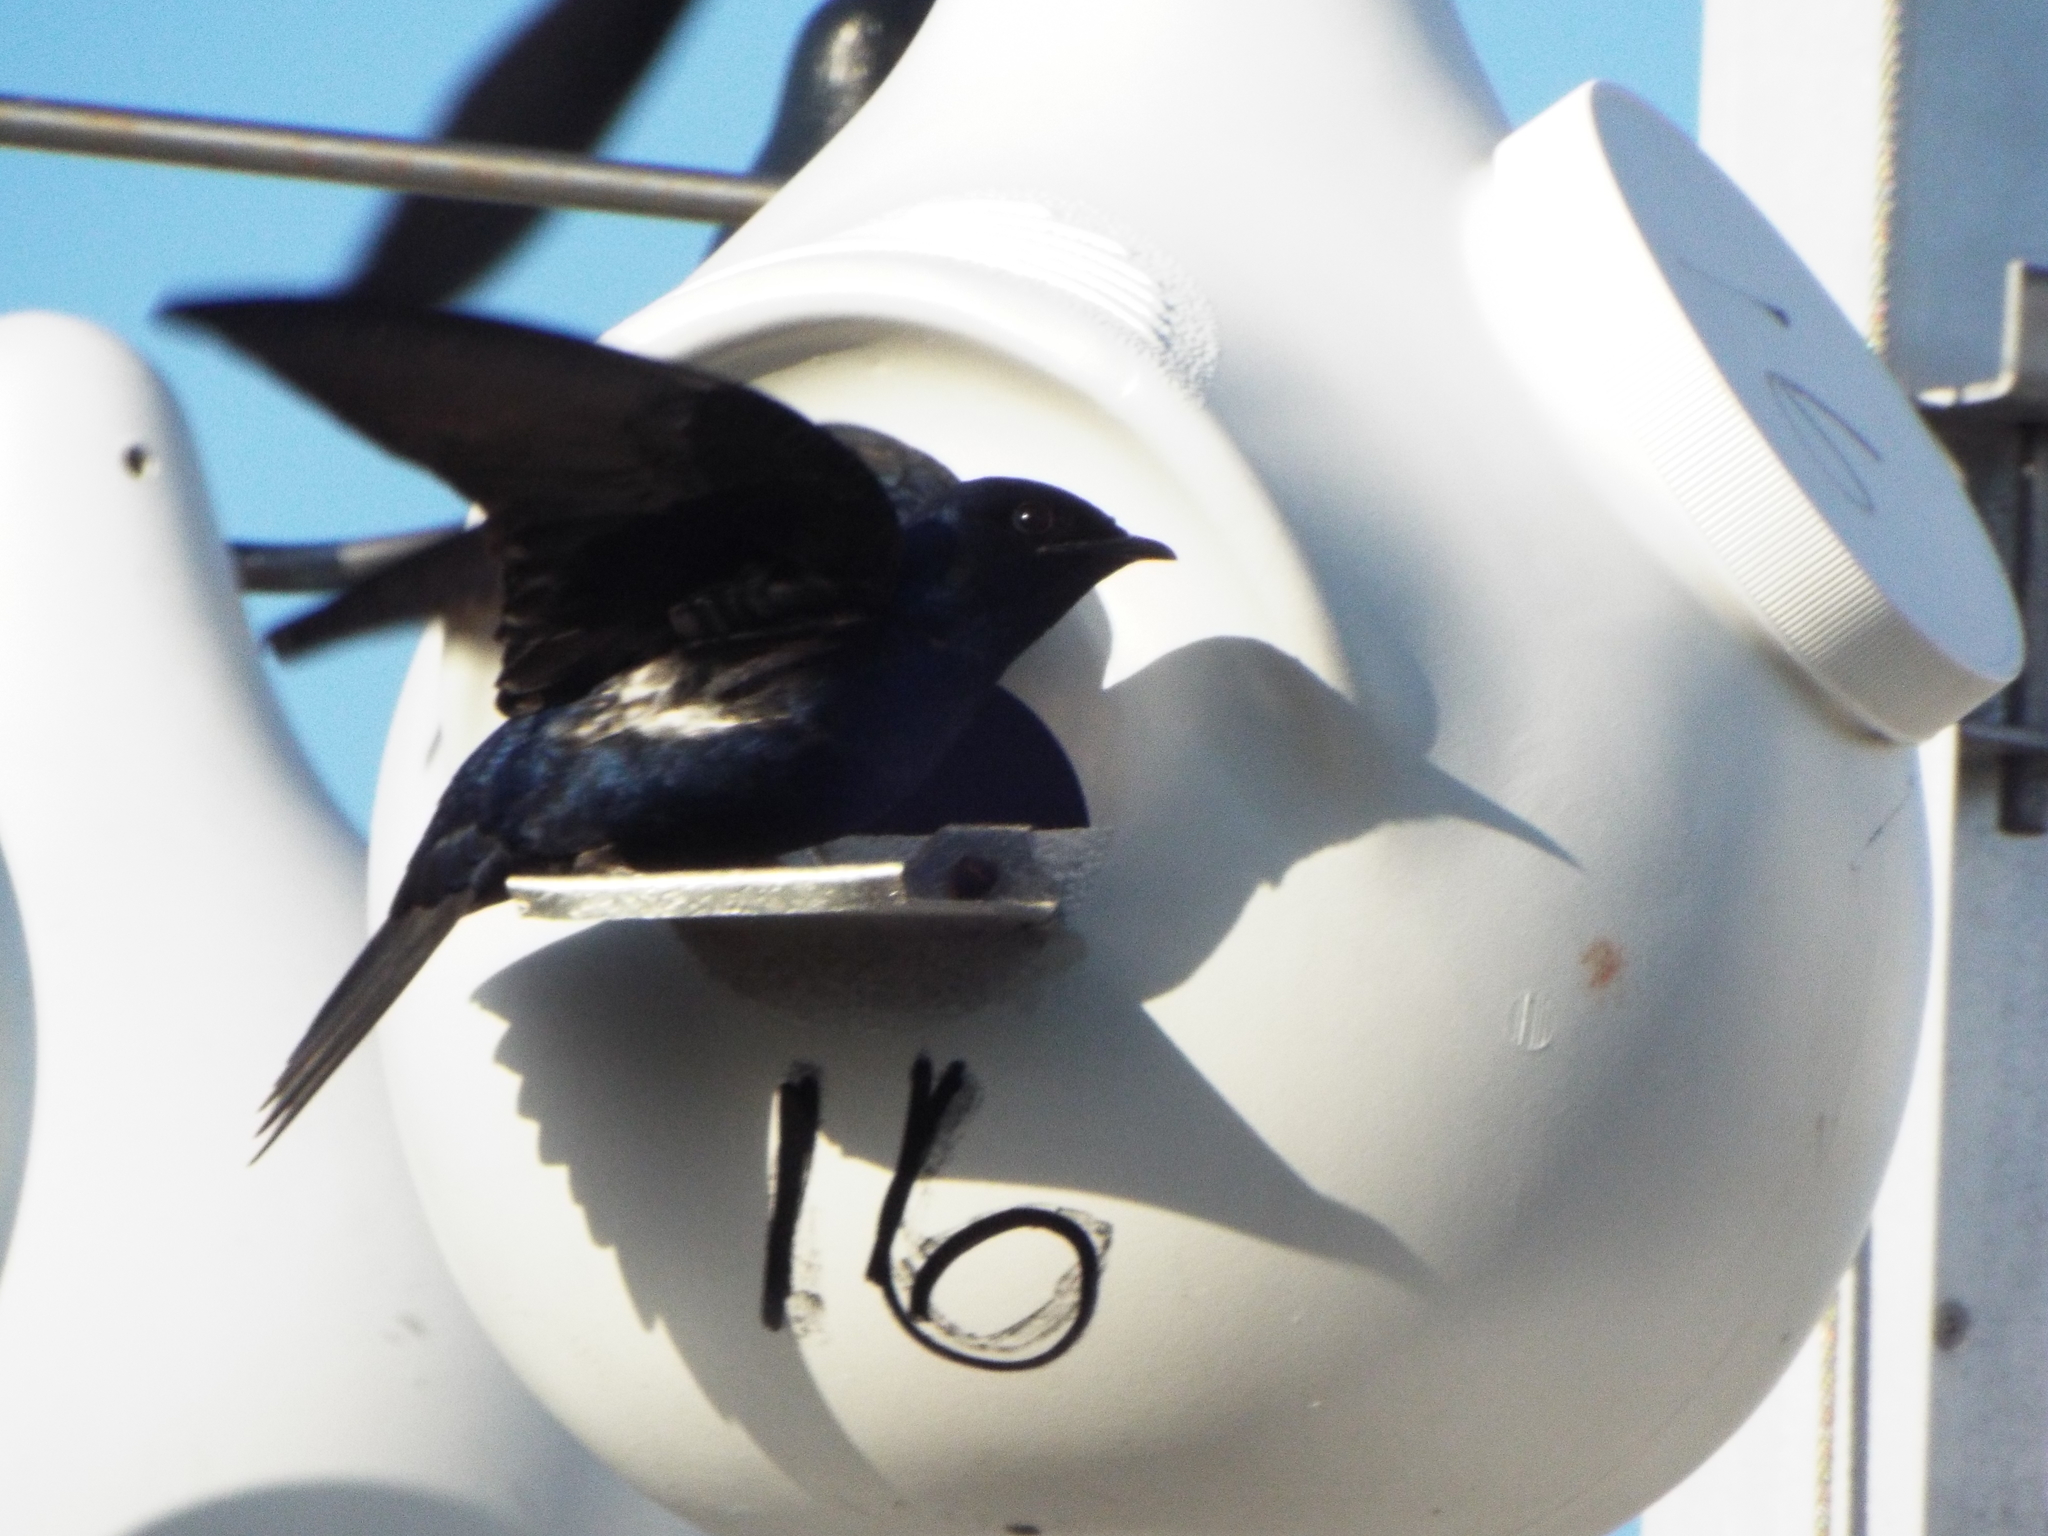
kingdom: Animalia
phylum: Chordata
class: Aves
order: Passeriformes
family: Hirundinidae
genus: Progne
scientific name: Progne subis
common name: Purple martin
